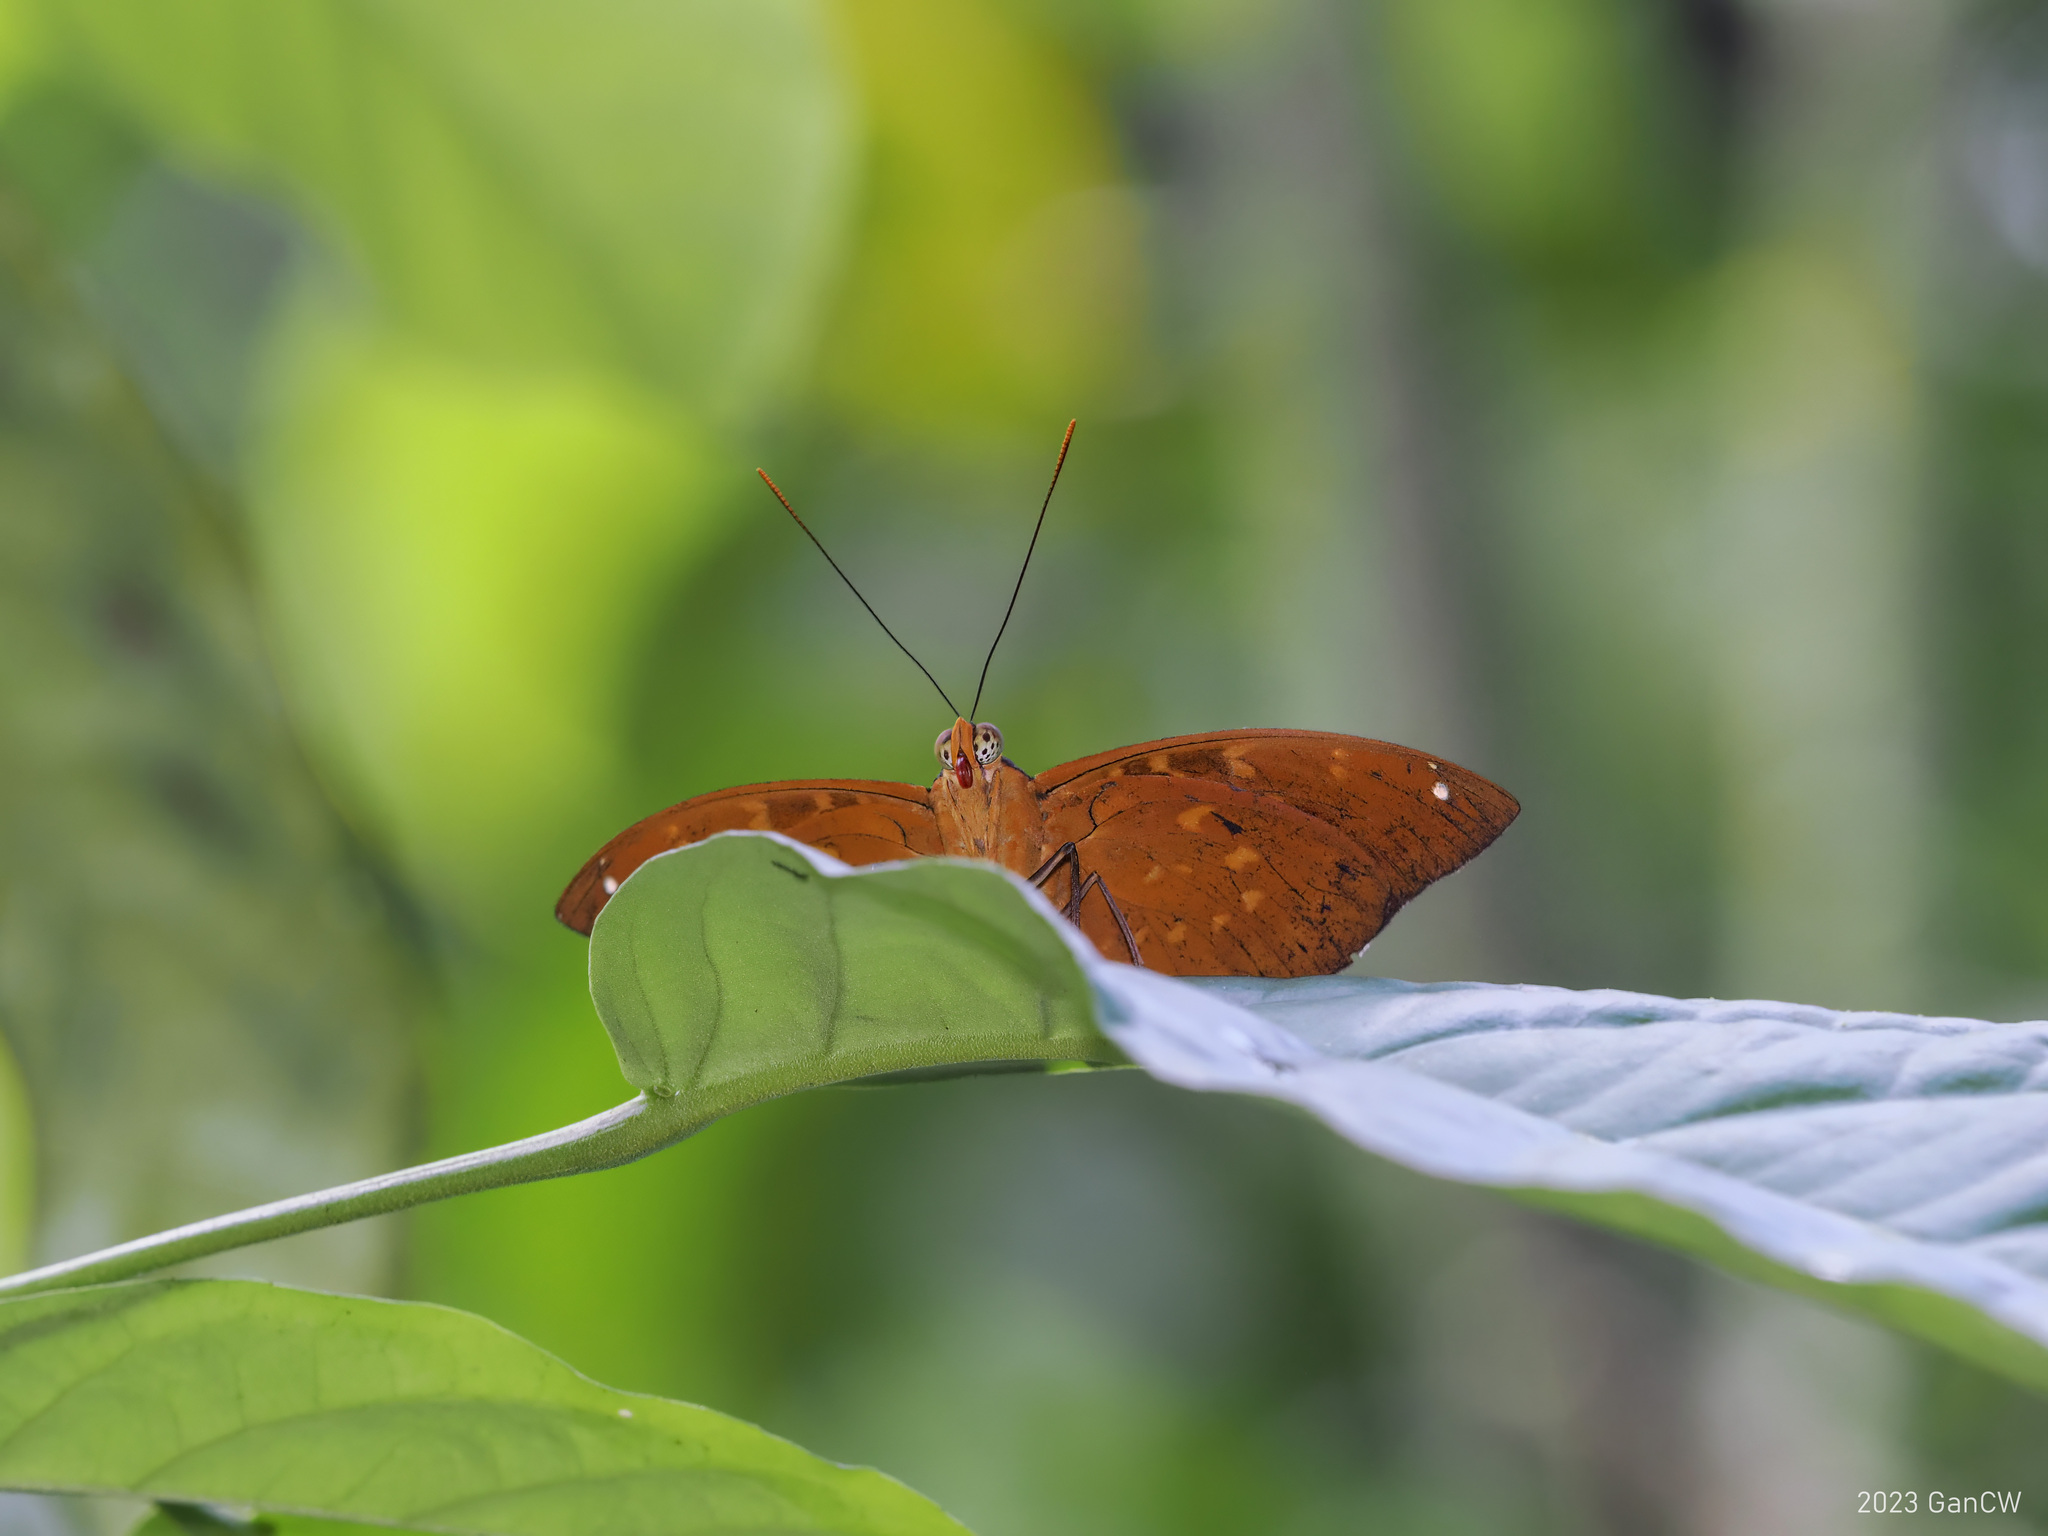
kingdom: Animalia
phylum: Arthropoda
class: Insecta
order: Lepidoptera
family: Nymphalidae
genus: Lexias
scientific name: Lexias pardalis
